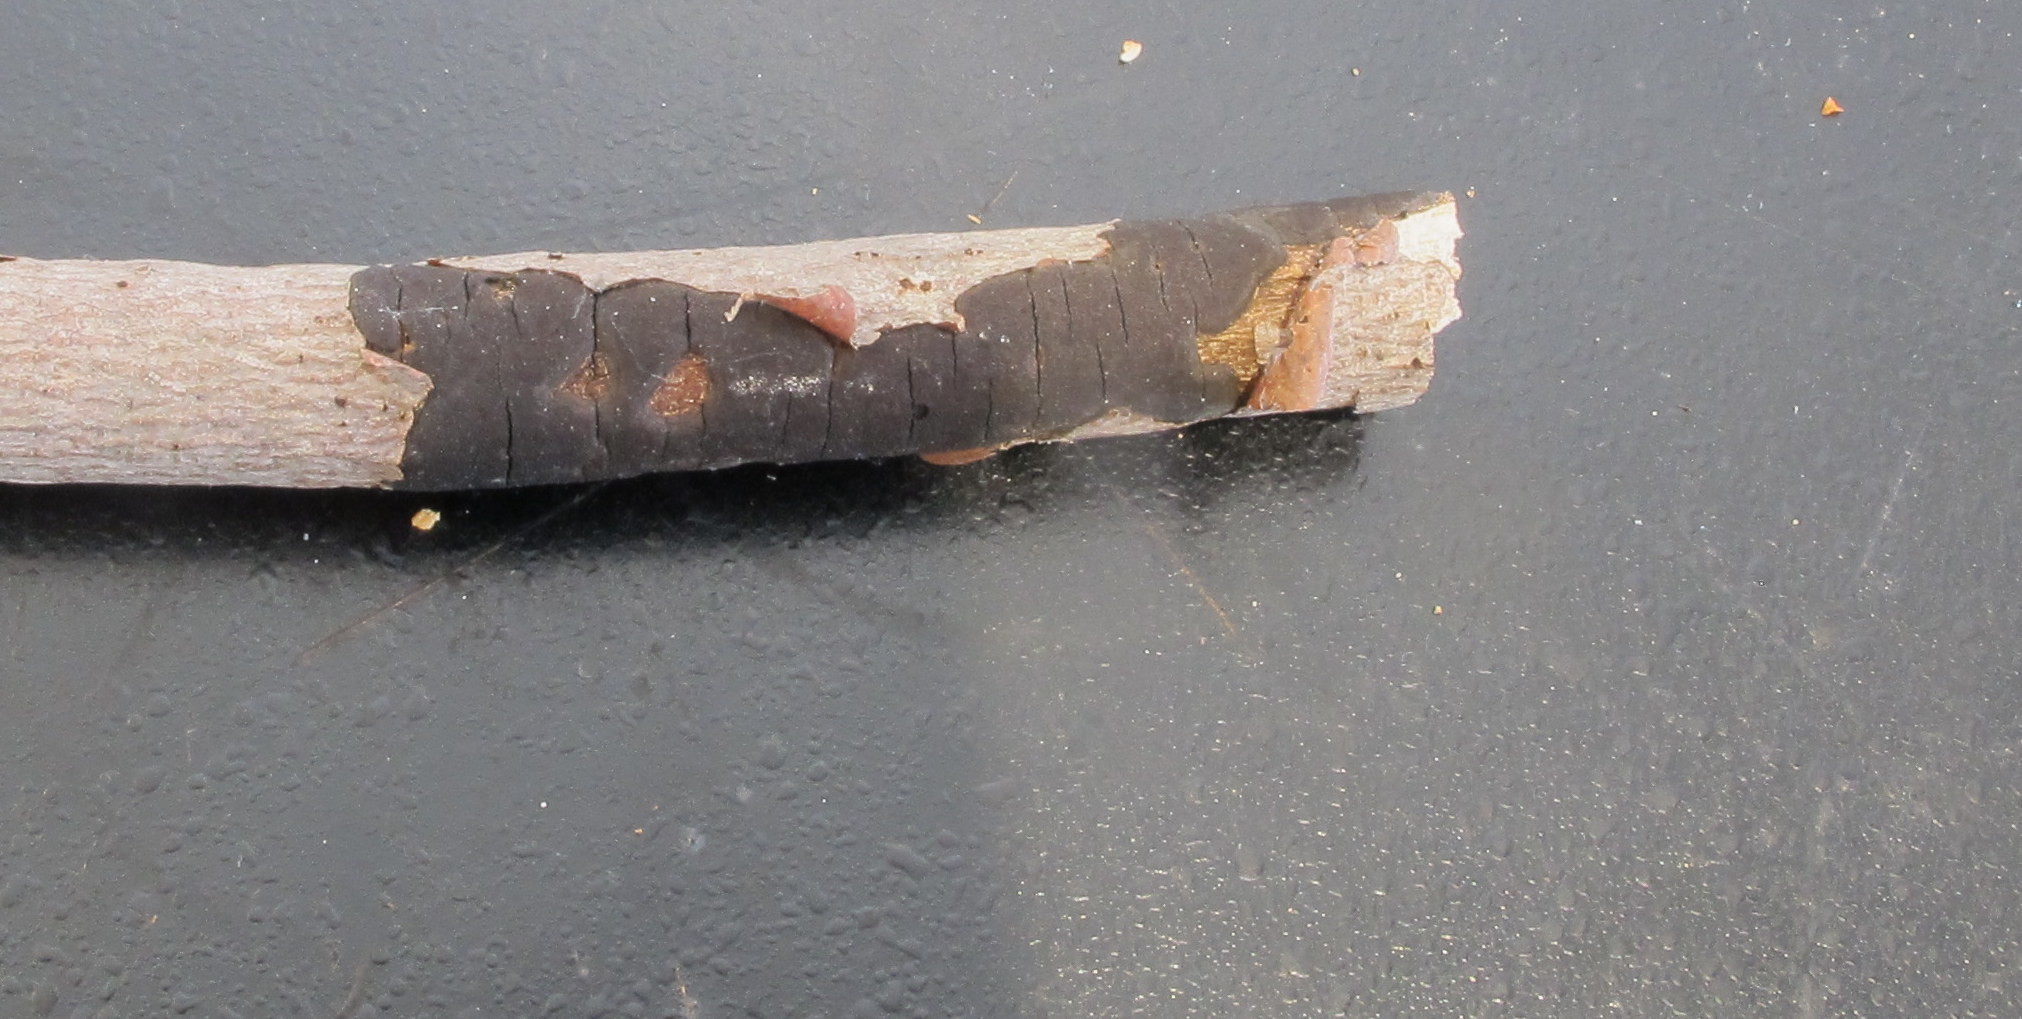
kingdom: Fungi
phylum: Ascomycota
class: Sordariomycetes
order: Xylariales
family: Diatrypaceae
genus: Diatrype
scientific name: Diatrype stigma
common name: Common tarcrust
